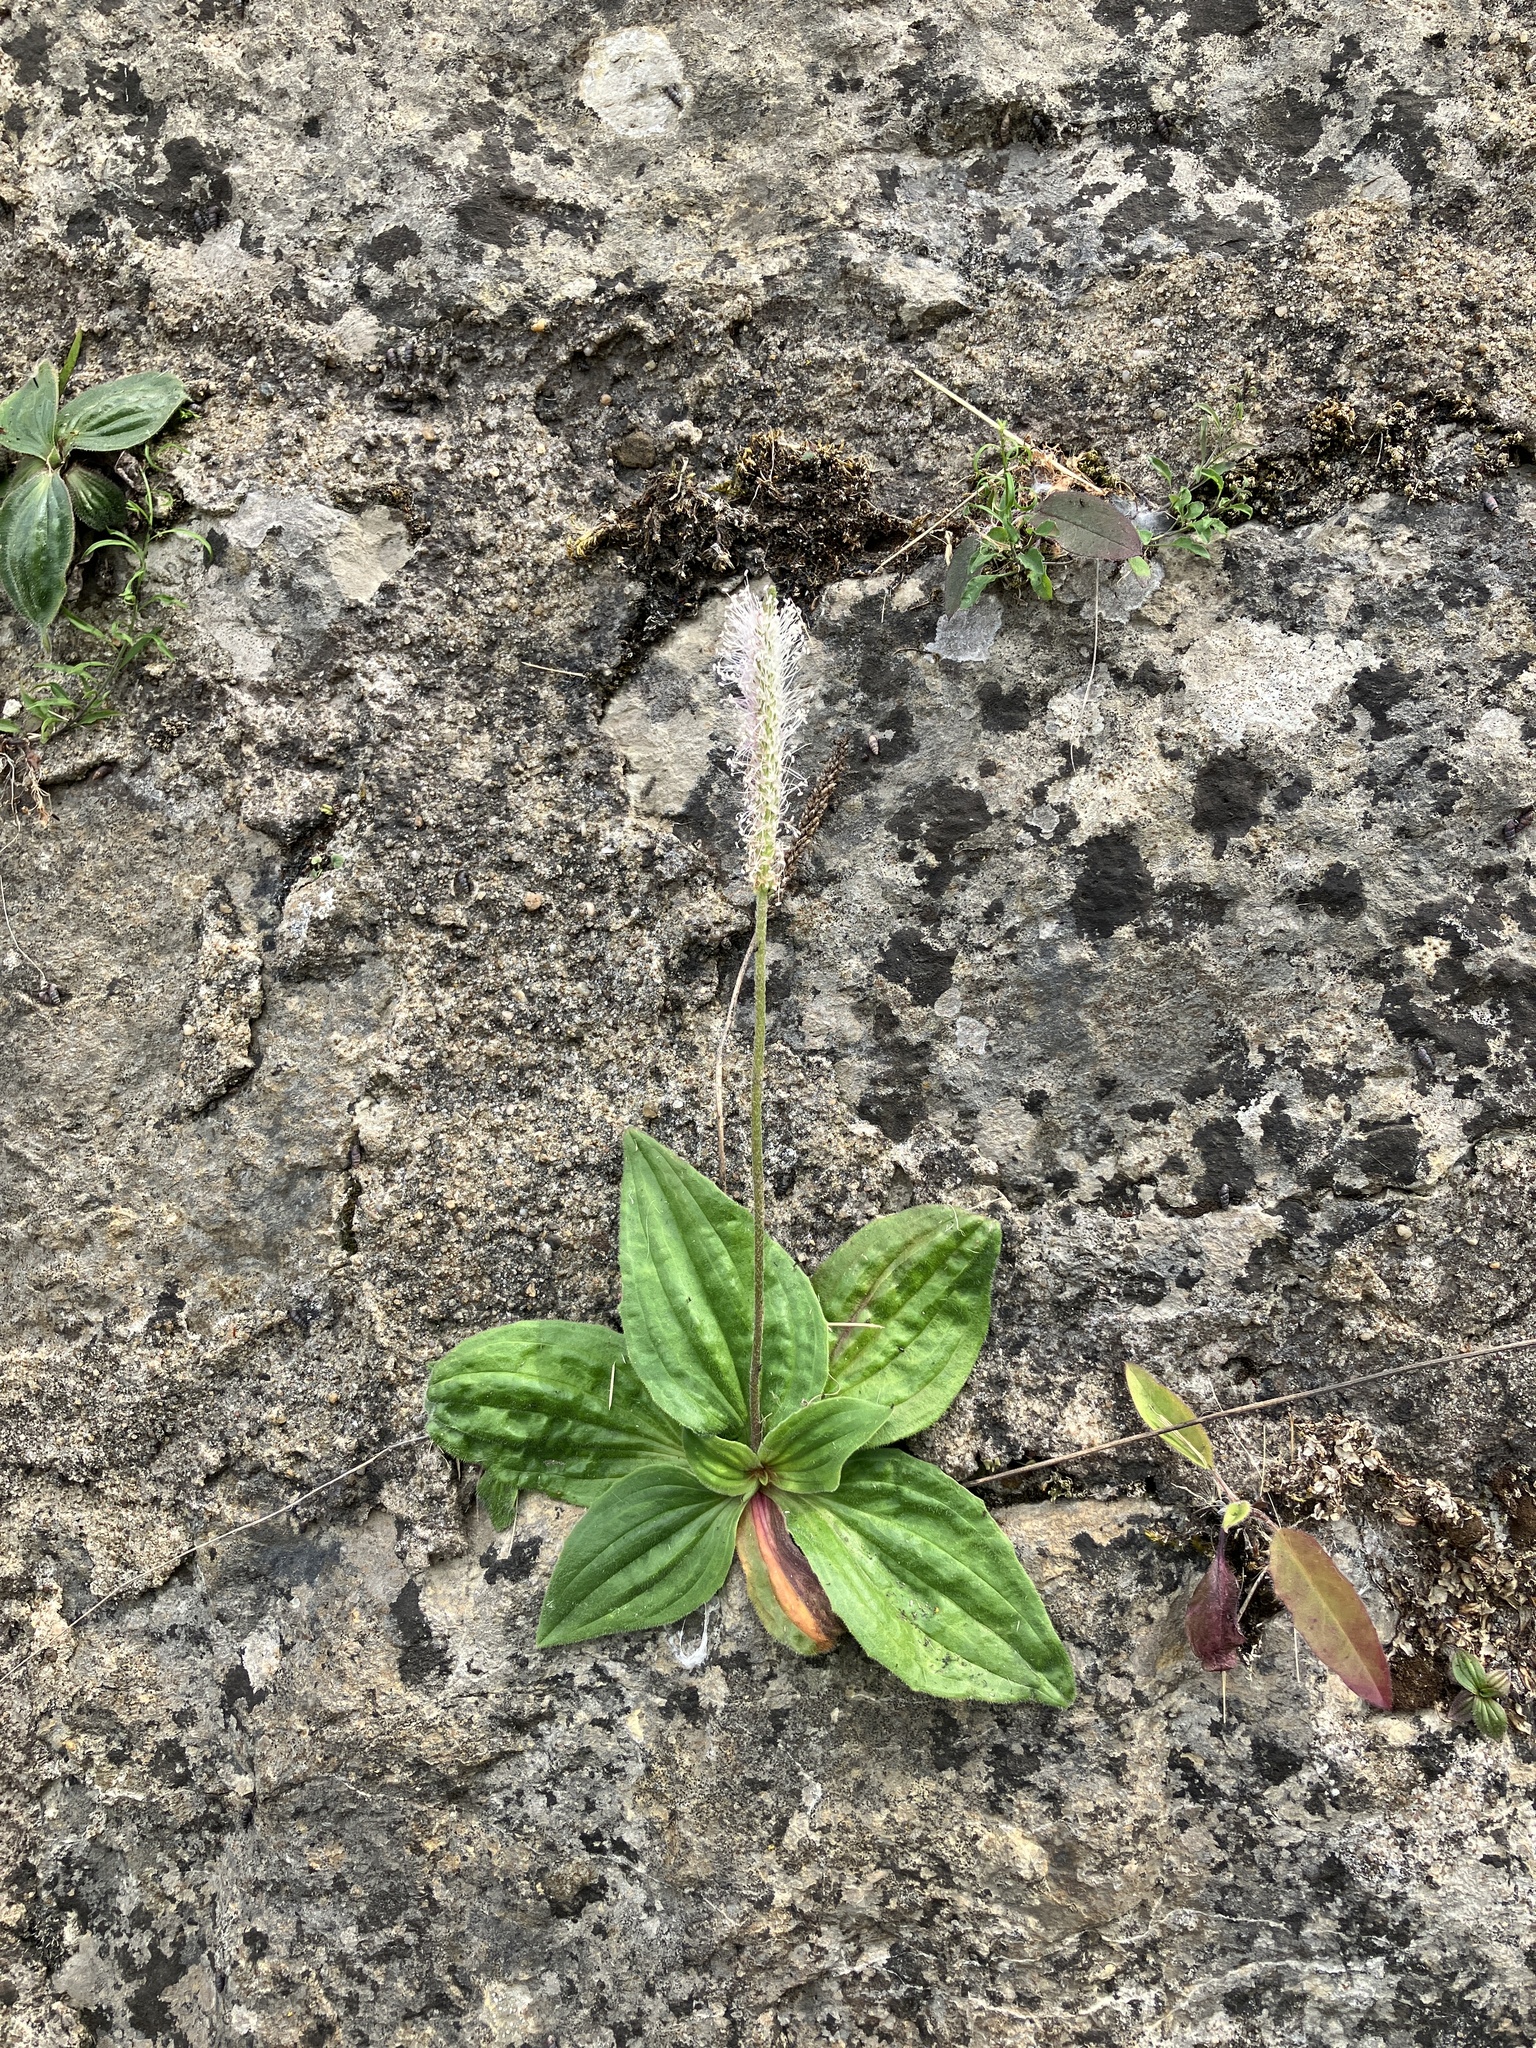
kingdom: Plantae
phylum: Tracheophyta
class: Magnoliopsida
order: Lamiales
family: Plantaginaceae
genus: Plantago
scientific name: Plantago media
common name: Hoary plantain
